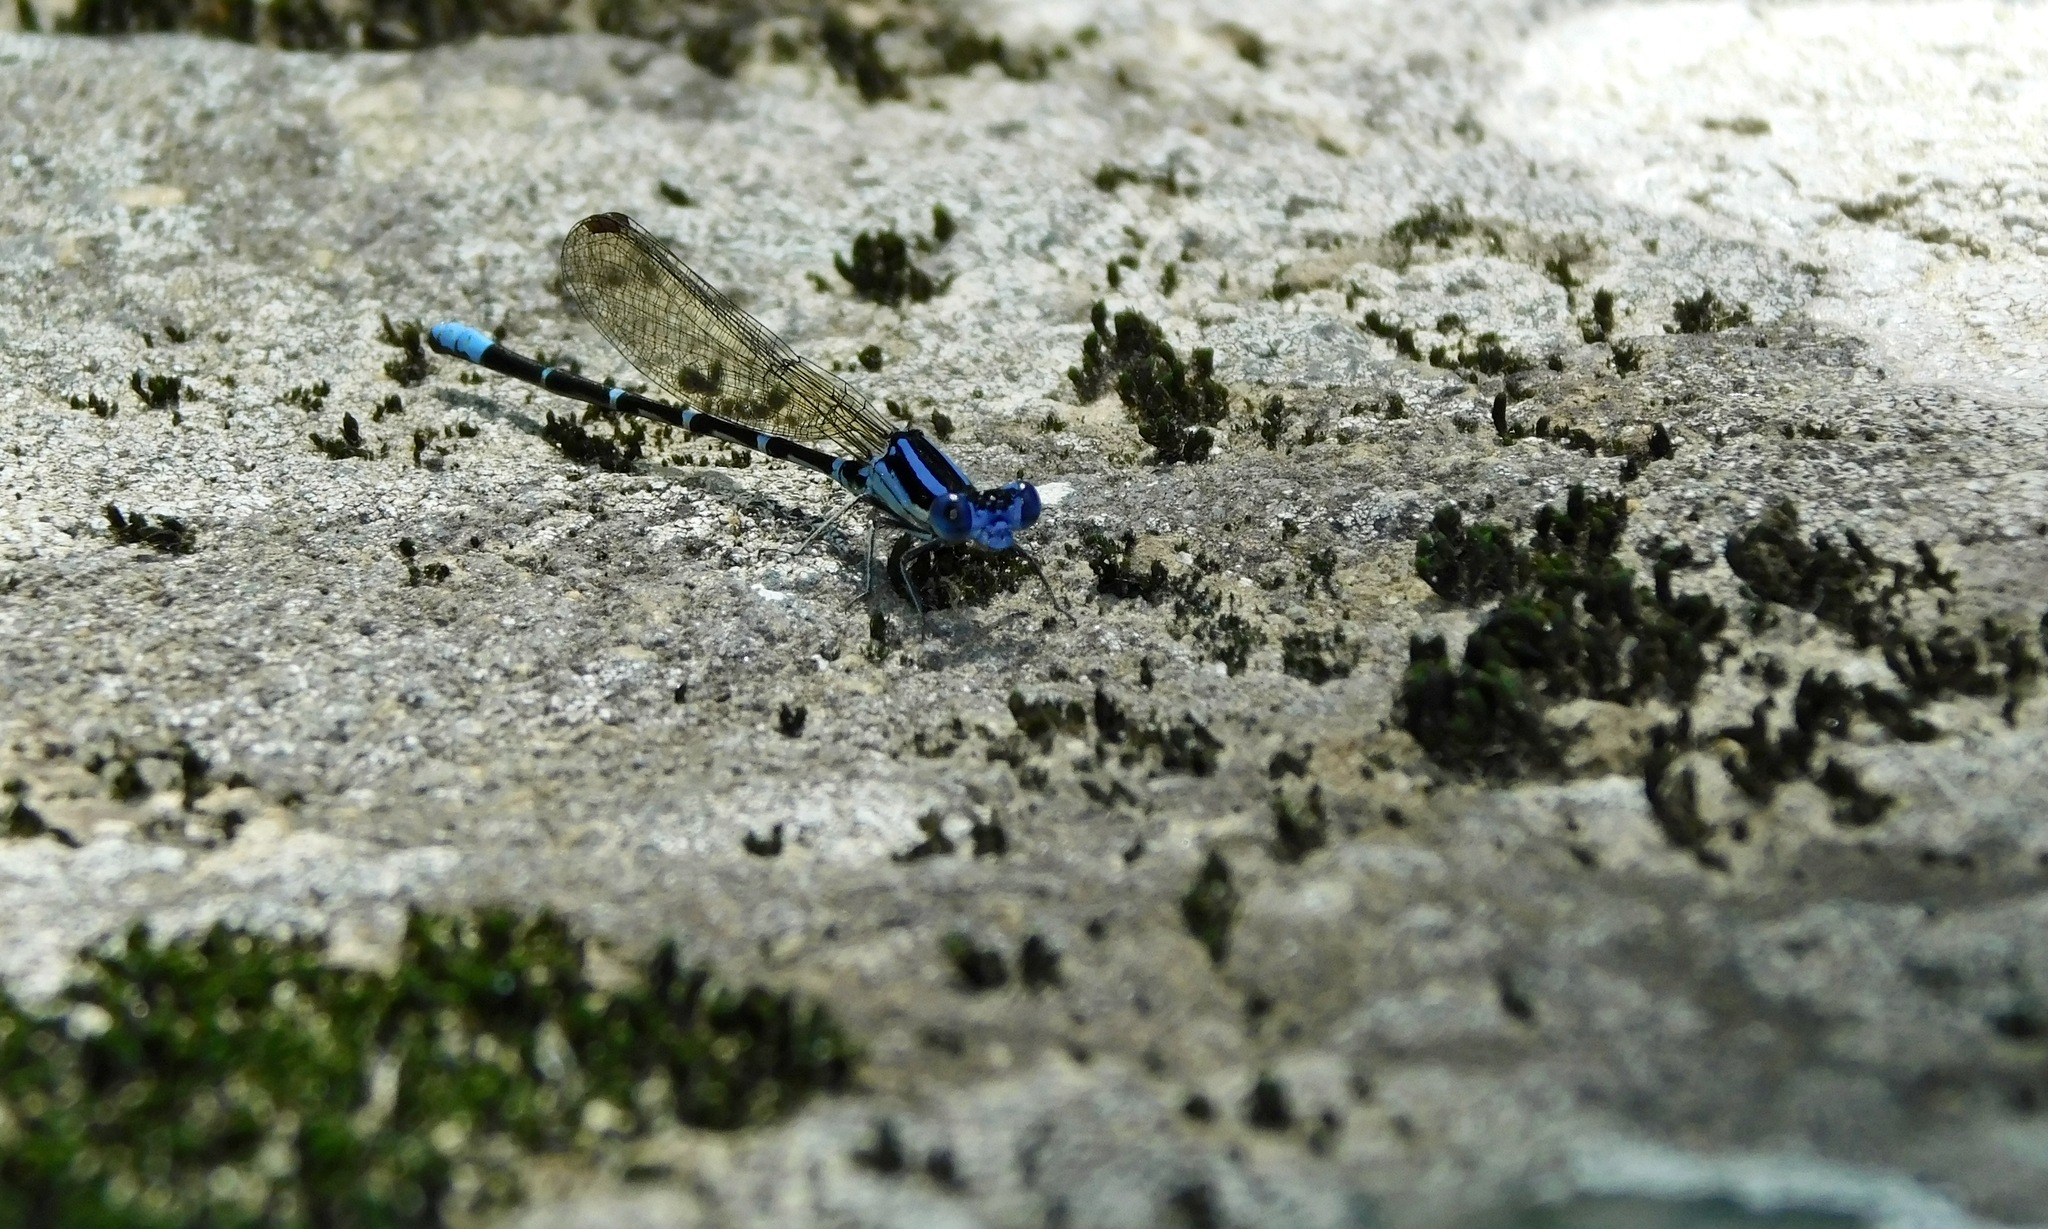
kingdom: Animalia
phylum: Arthropoda
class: Insecta
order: Odonata
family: Coenagrionidae
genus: Argia
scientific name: Argia sedula
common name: Blue-ringed dancer
